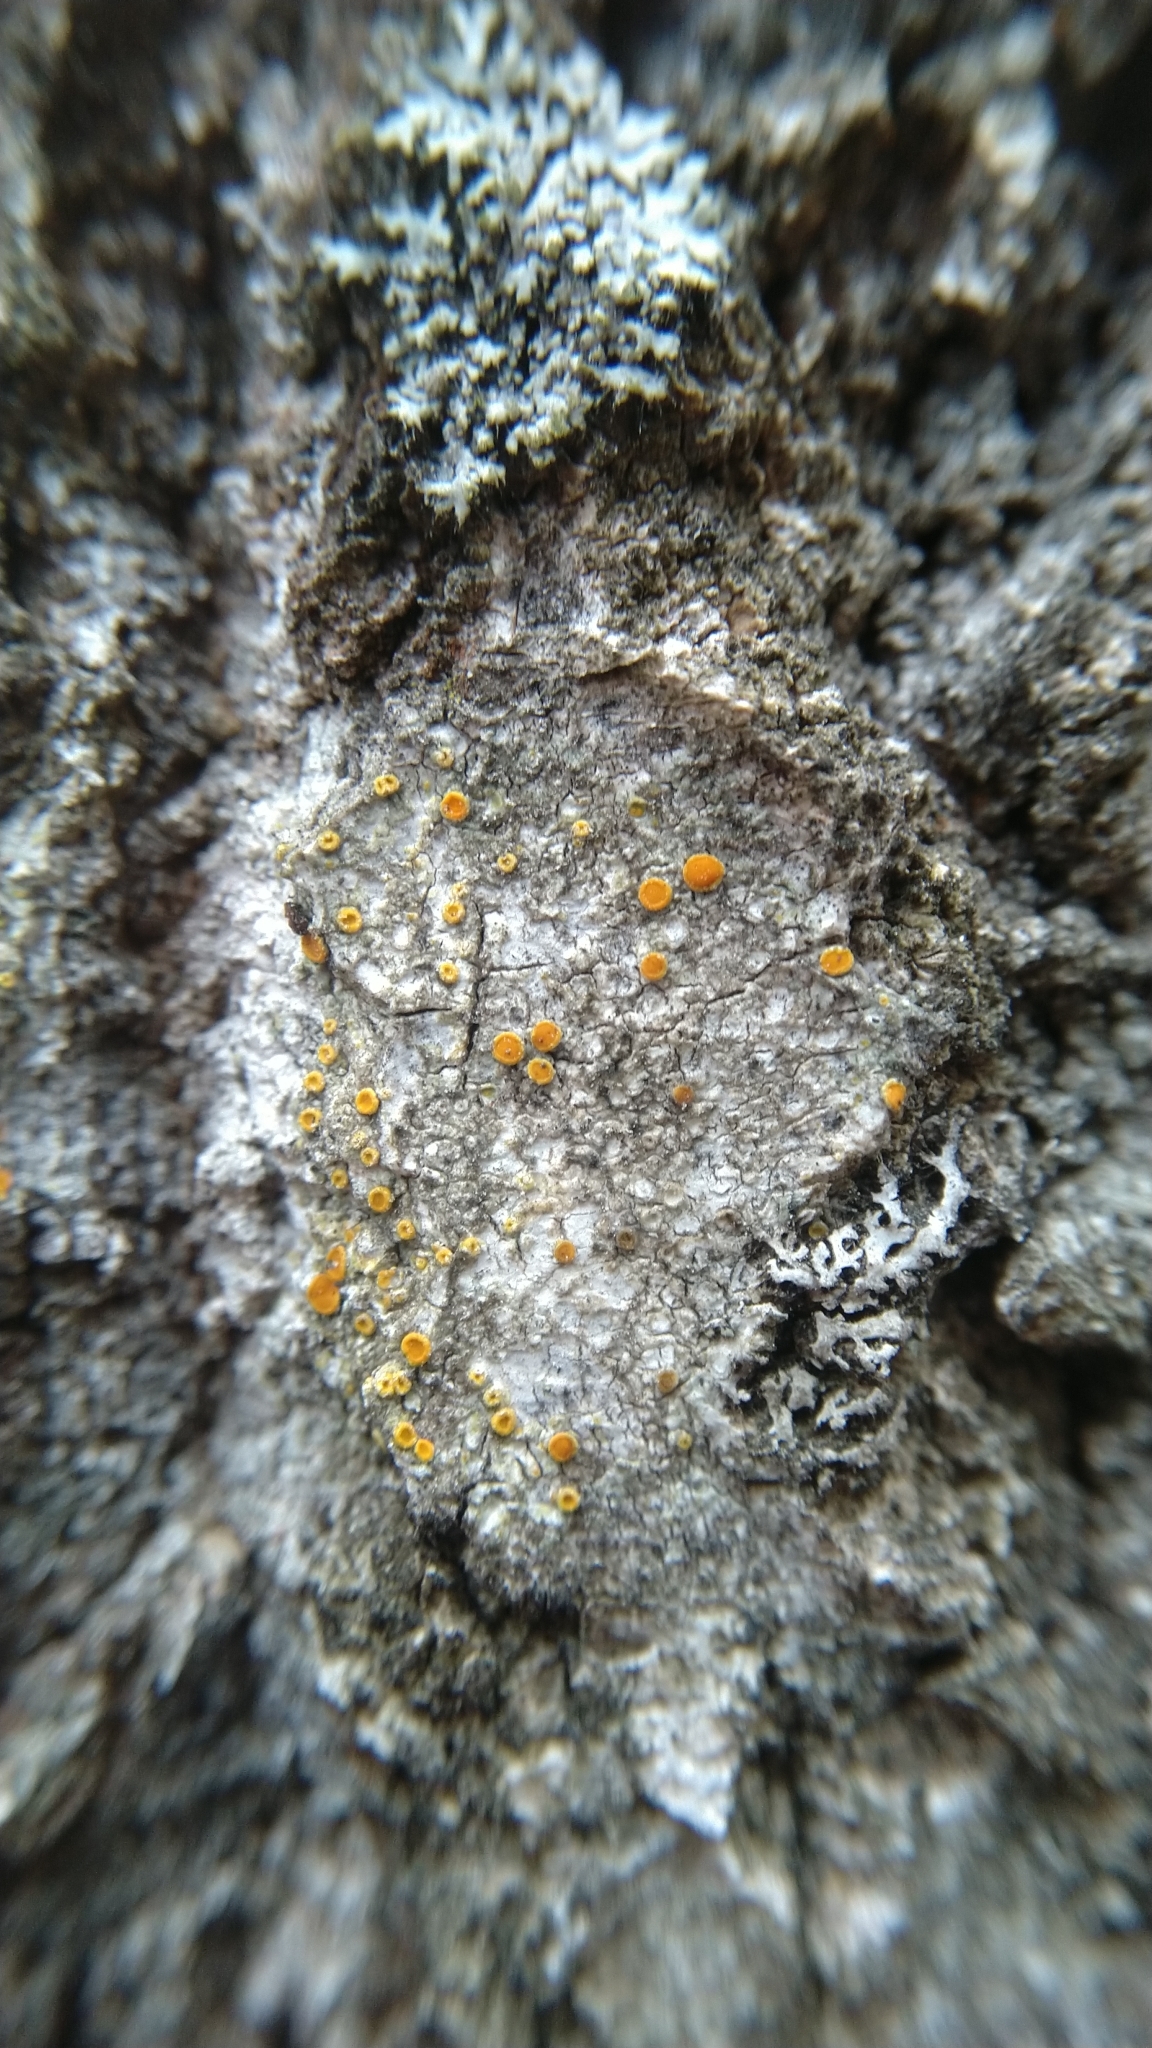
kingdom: Fungi
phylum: Ascomycota
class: Lecanoromycetes
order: Teloschistales
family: Teloschistaceae
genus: Athallia
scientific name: Athallia
